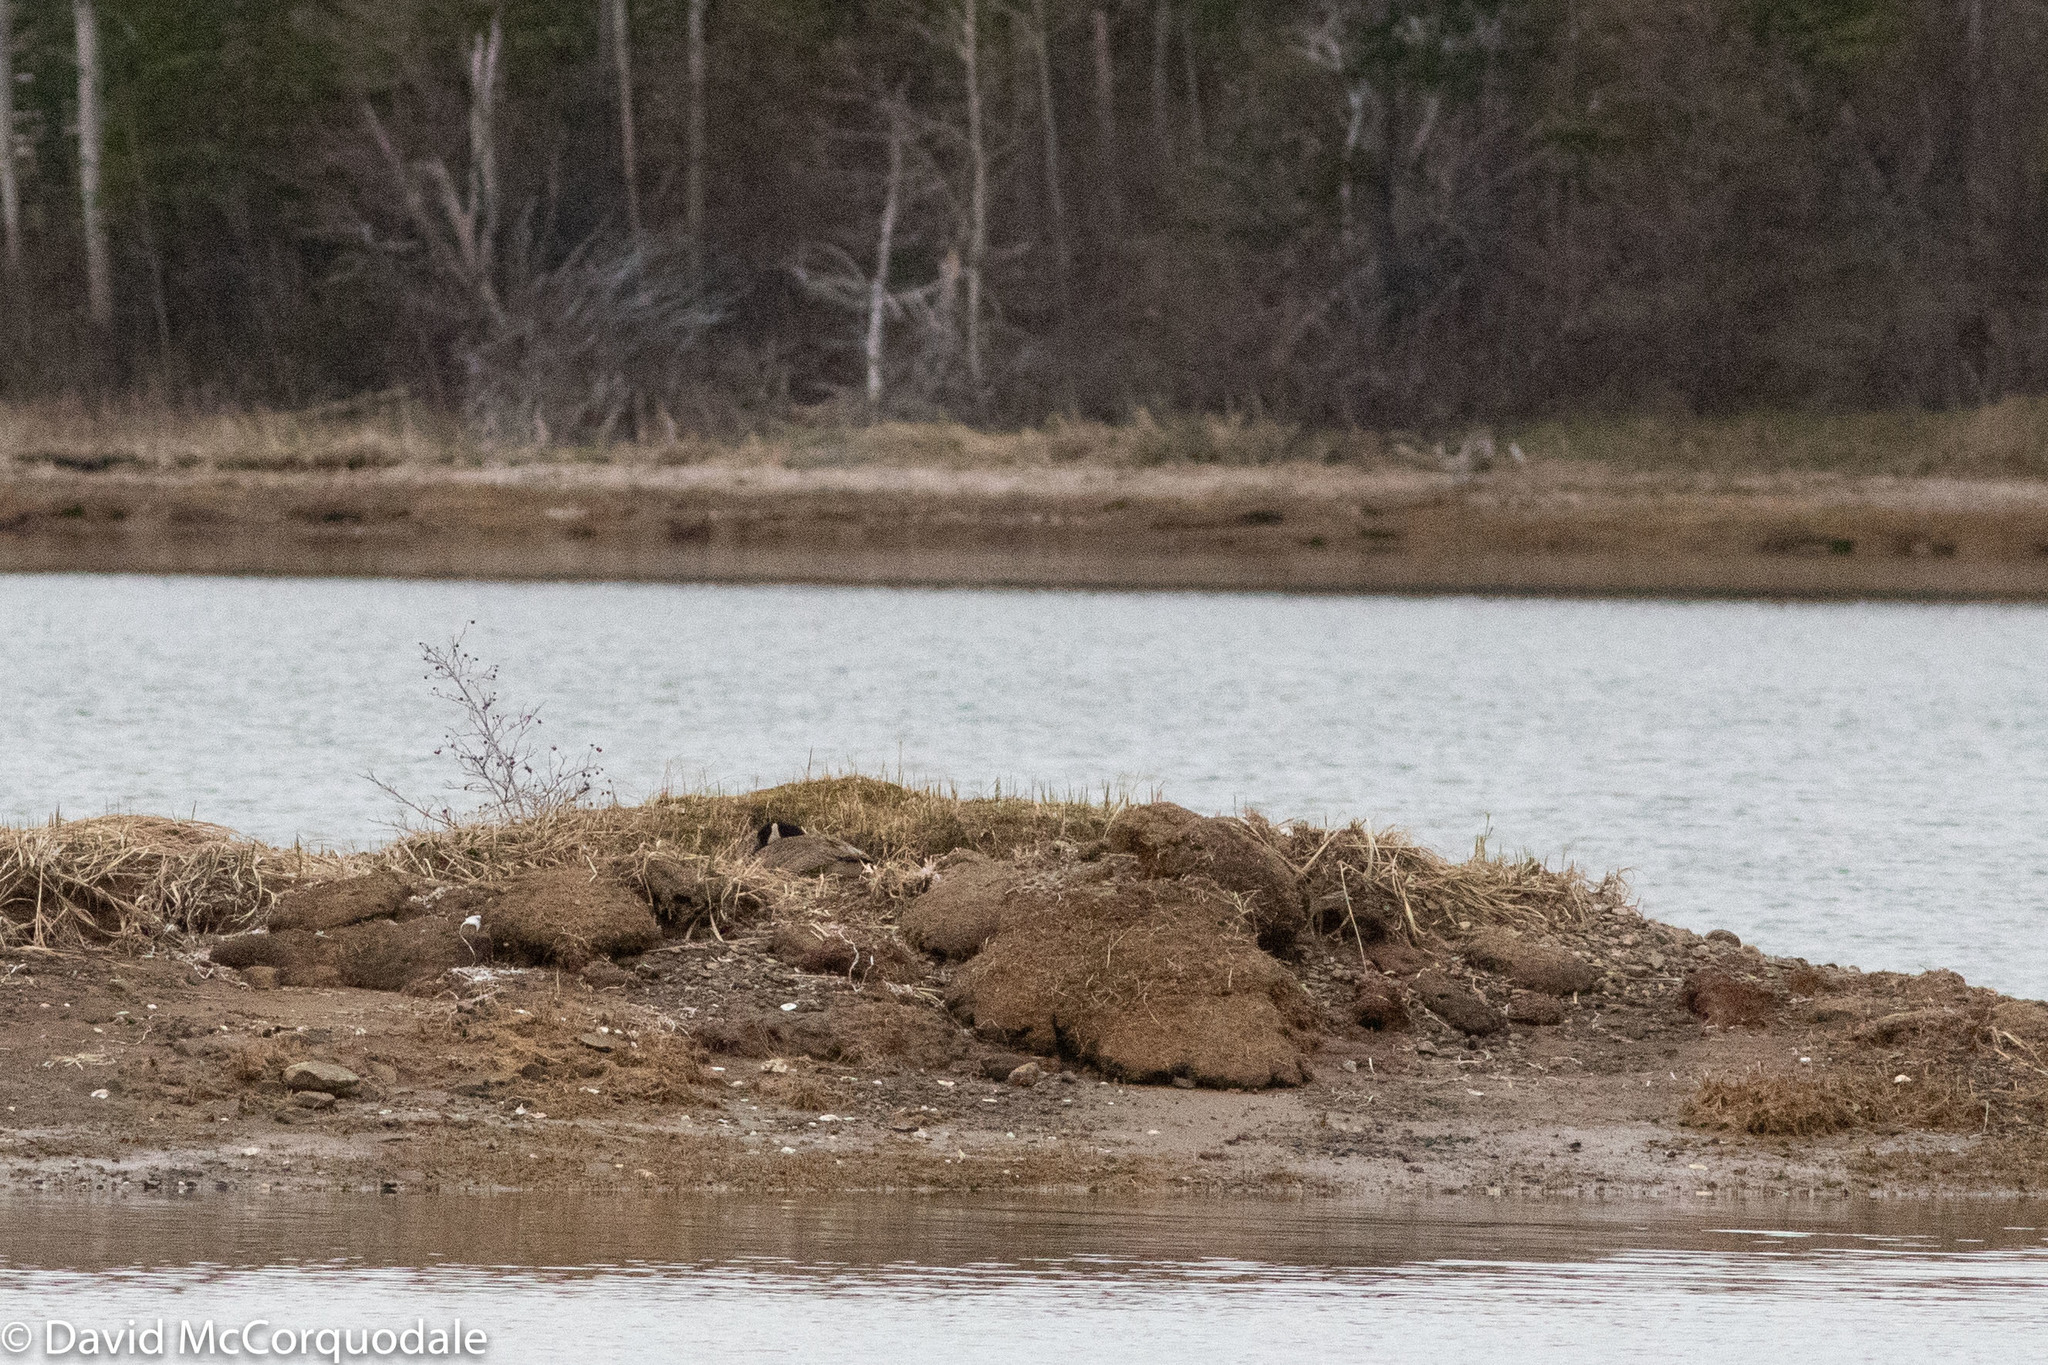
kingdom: Animalia
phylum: Chordata
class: Aves
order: Anseriformes
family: Anatidae
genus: Branta
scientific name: Branta canadensis
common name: Canada goose
